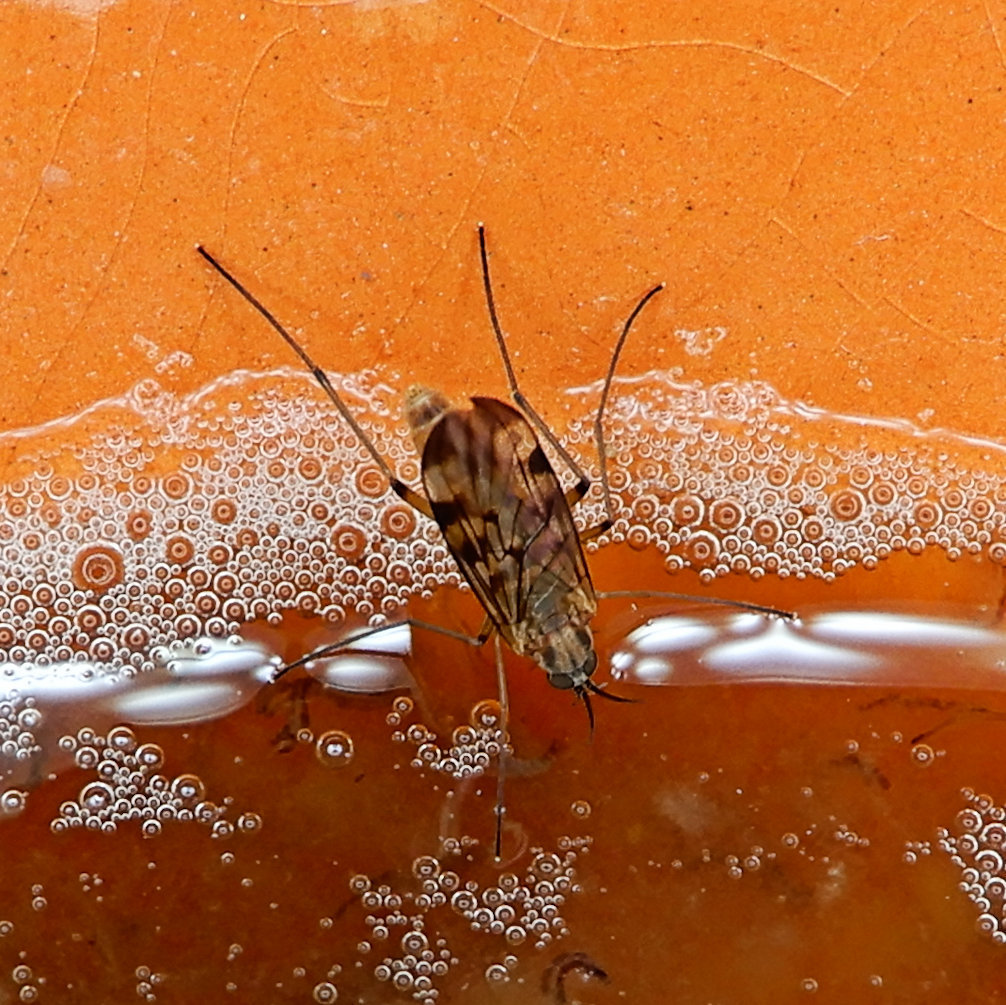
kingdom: Animalia
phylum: Arthropoda
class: Insecta
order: Diptera
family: Anisopodidae
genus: Sylvicola
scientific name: Sylvicola fenestralis
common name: Window gnat
